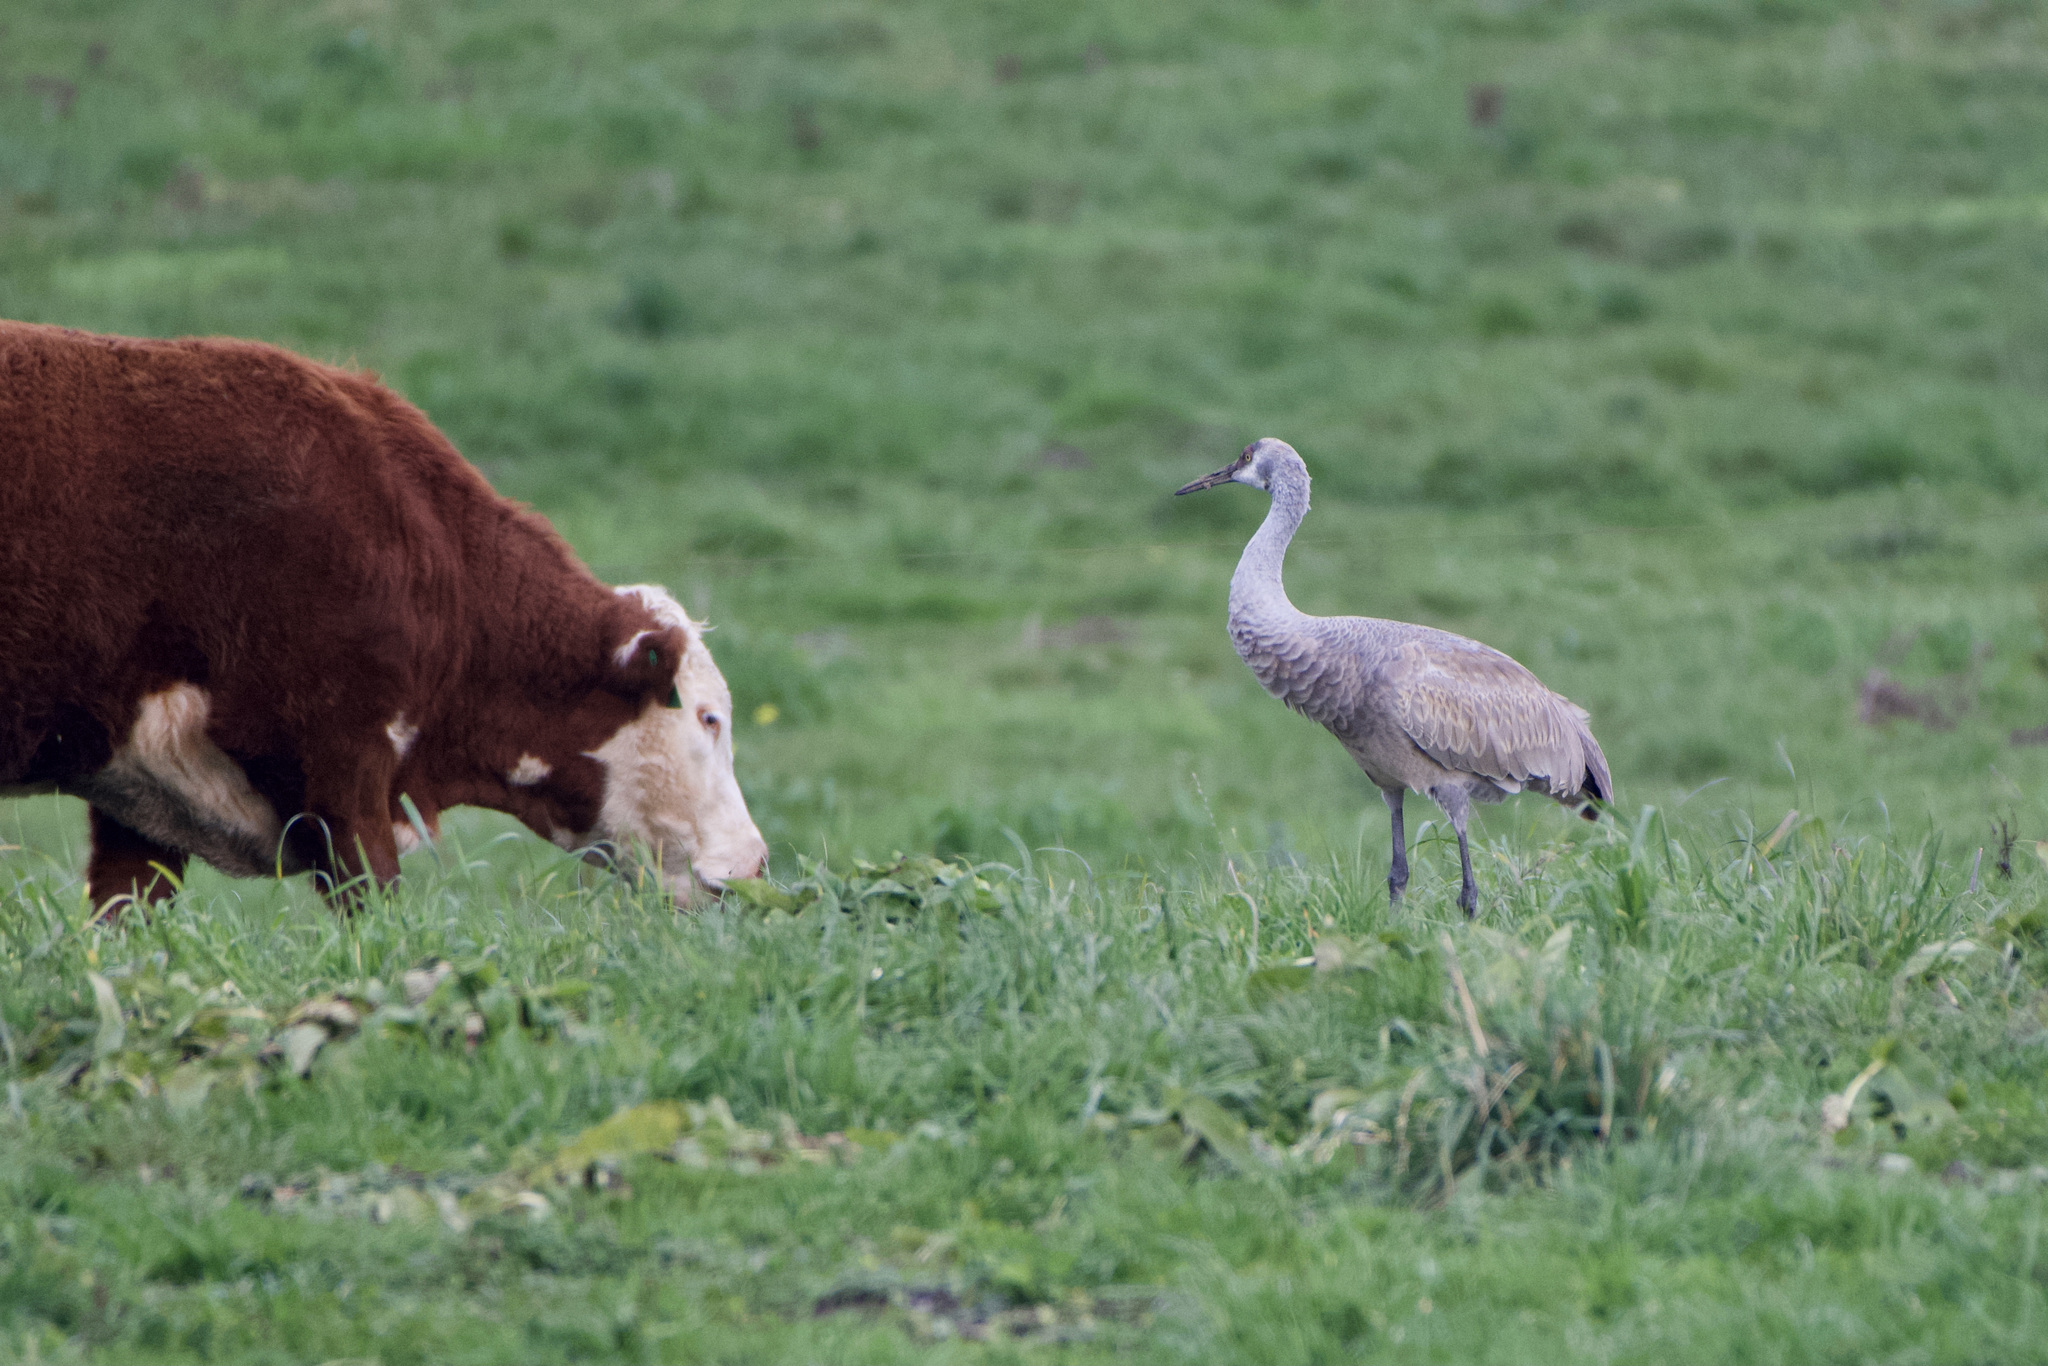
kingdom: Animalia
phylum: Chordata
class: Aves
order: Gruiformes
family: Gruidae
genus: Grus
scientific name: Grus canadensis
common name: Sandhill crane
